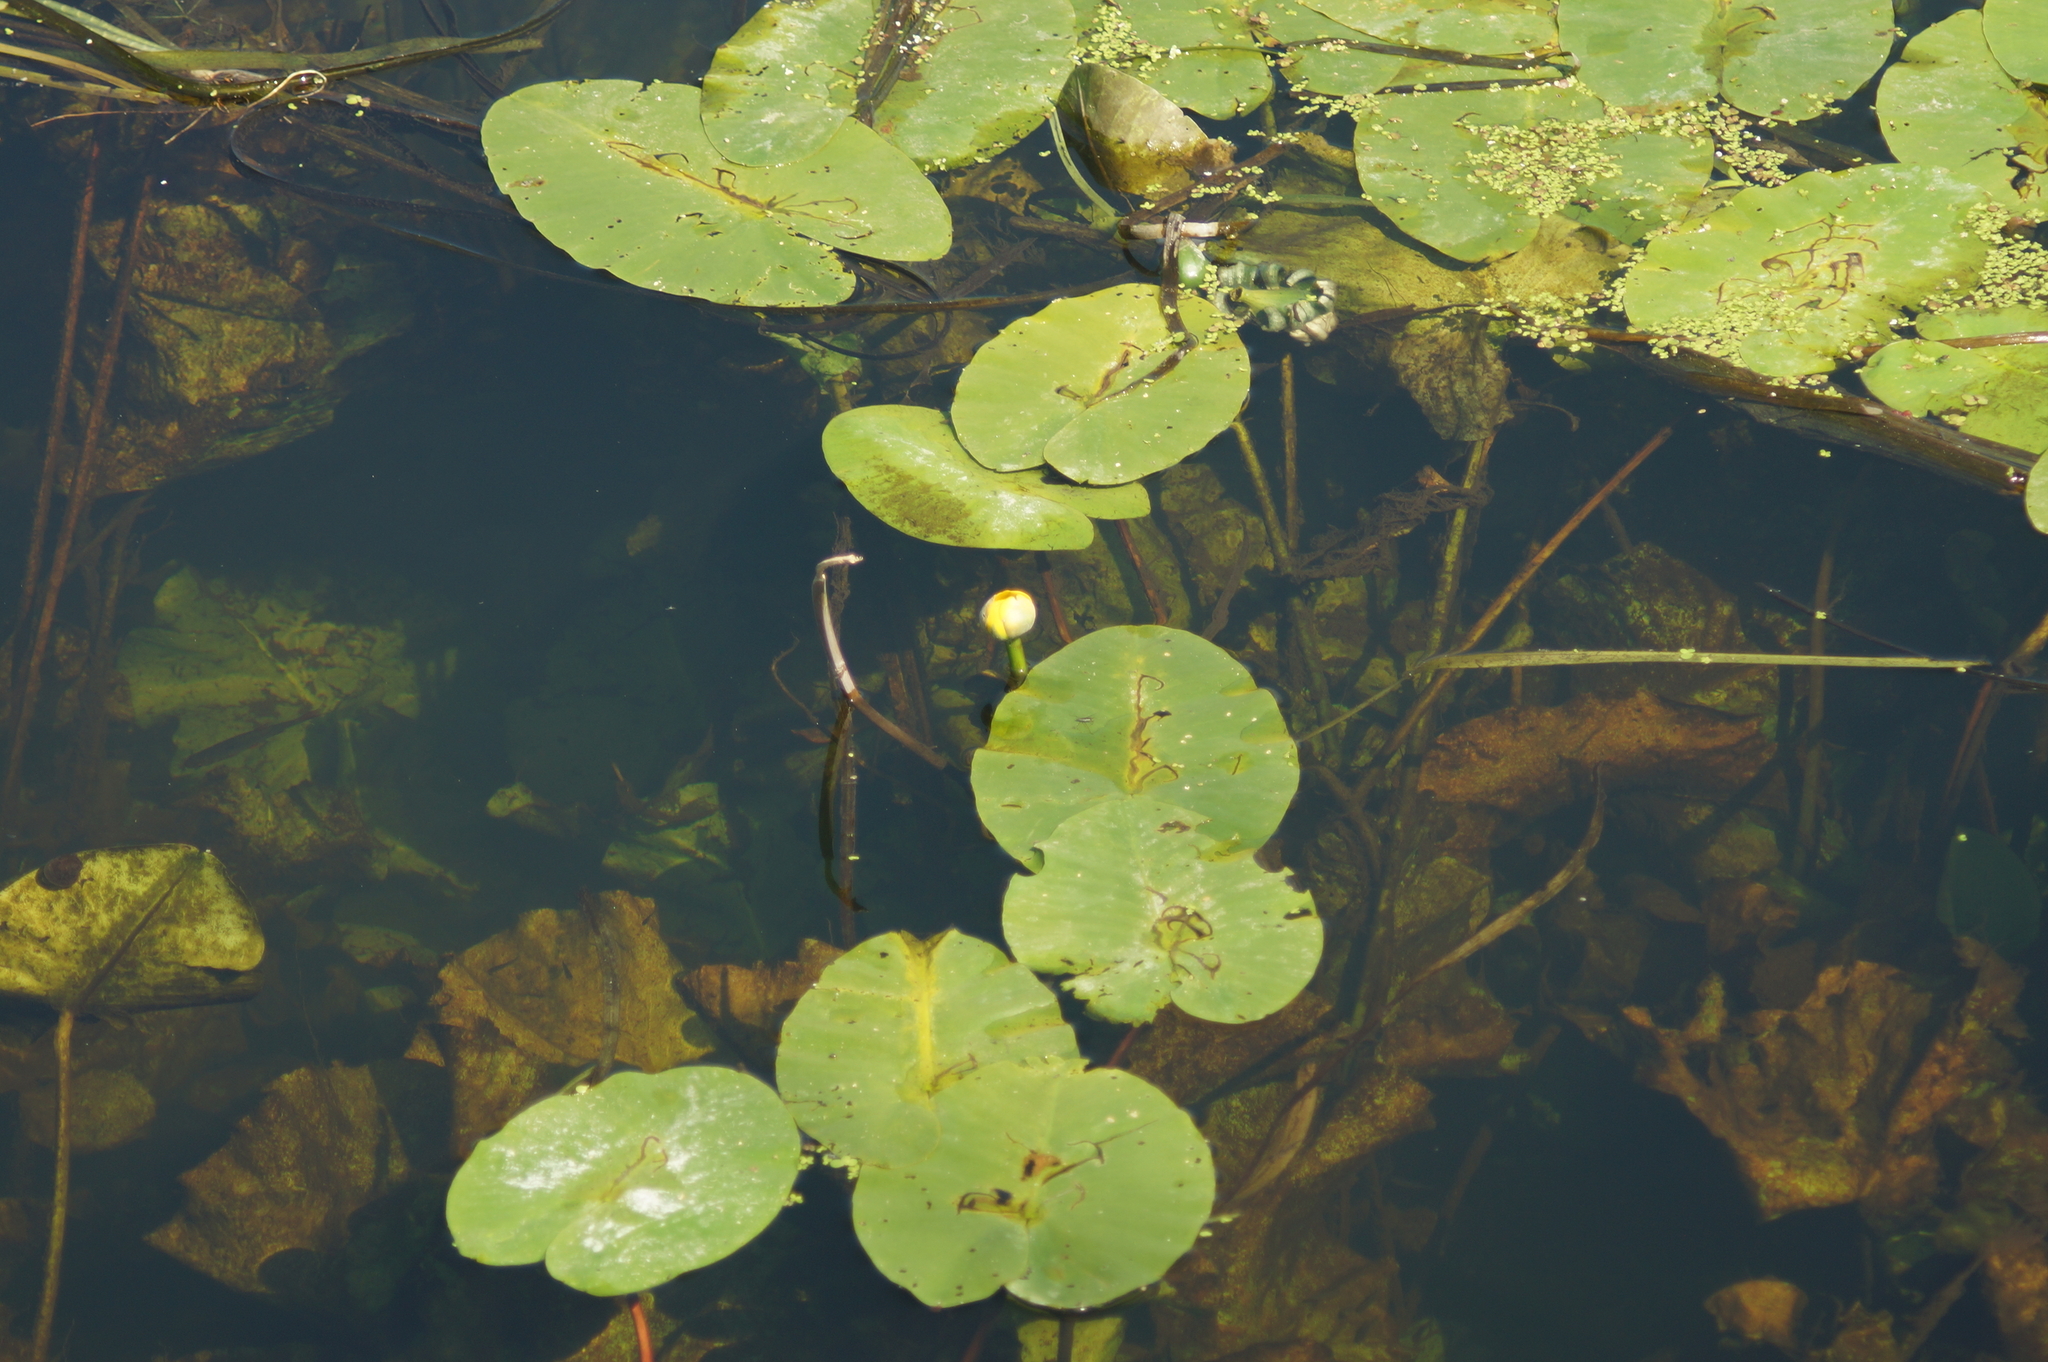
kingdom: Plantae
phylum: Tracheophyta
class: Magnoliopsida
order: Nymphaeales
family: Nymphaeaceae
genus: Nuphar
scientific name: Nuphar lutea
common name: Yellow water-lily
